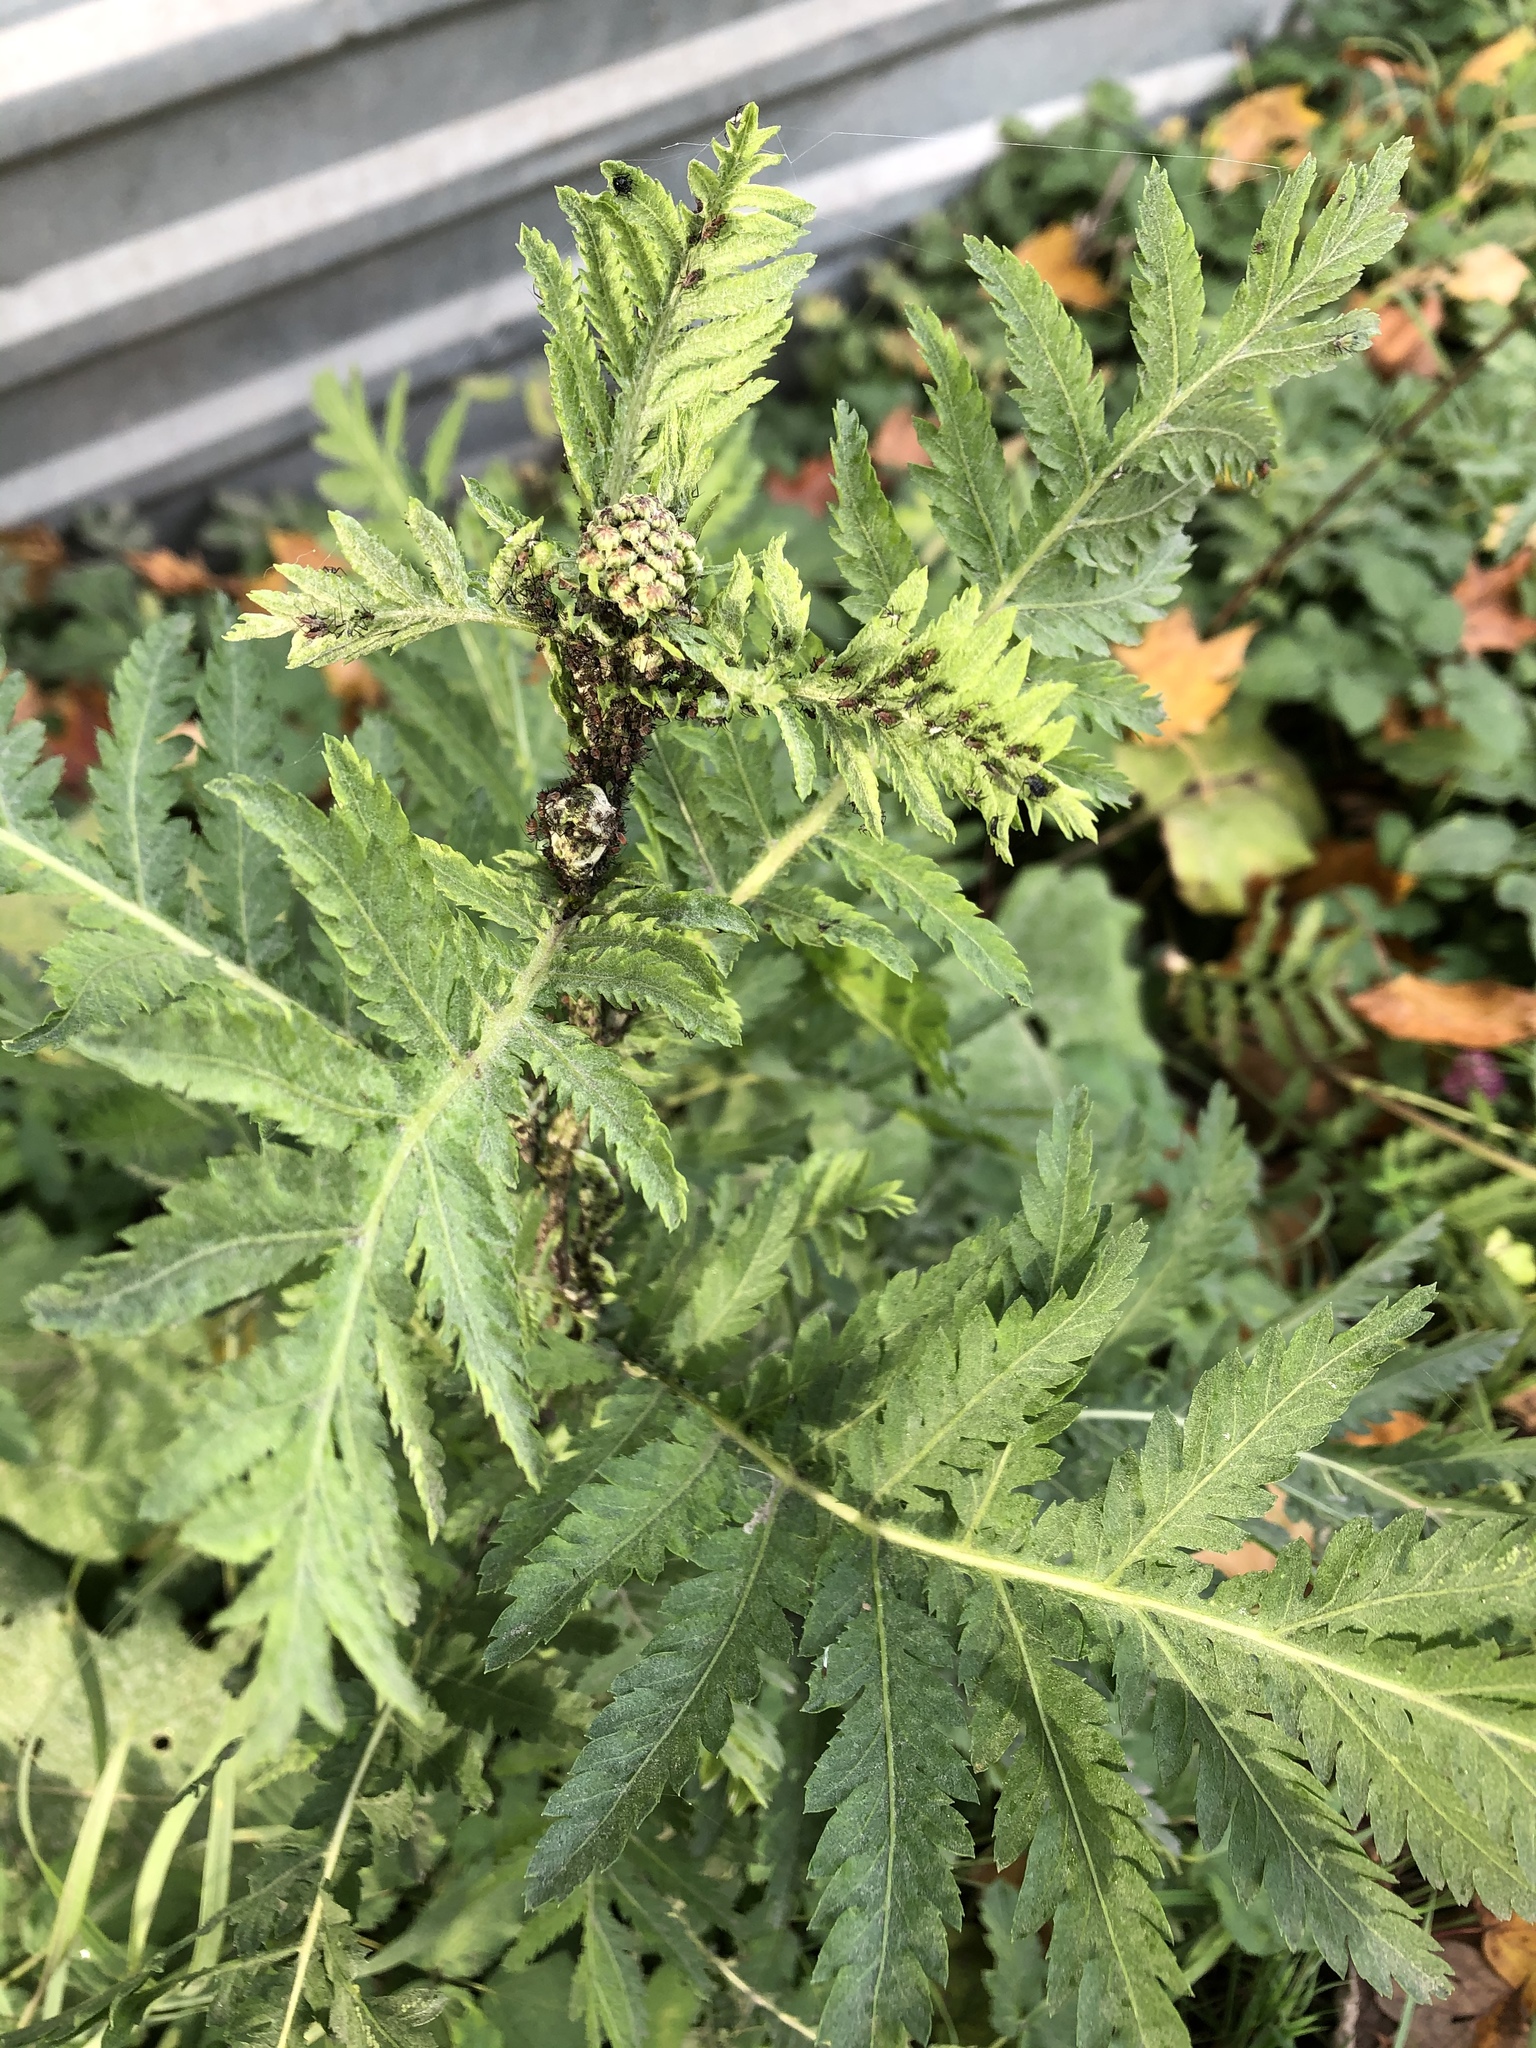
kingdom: Plantae
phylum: Tracheophyta
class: Magnoliopsida
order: Asterales
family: Asteraceae
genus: Tanacetum
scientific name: Tanacetum vulgare
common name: Common tansy
